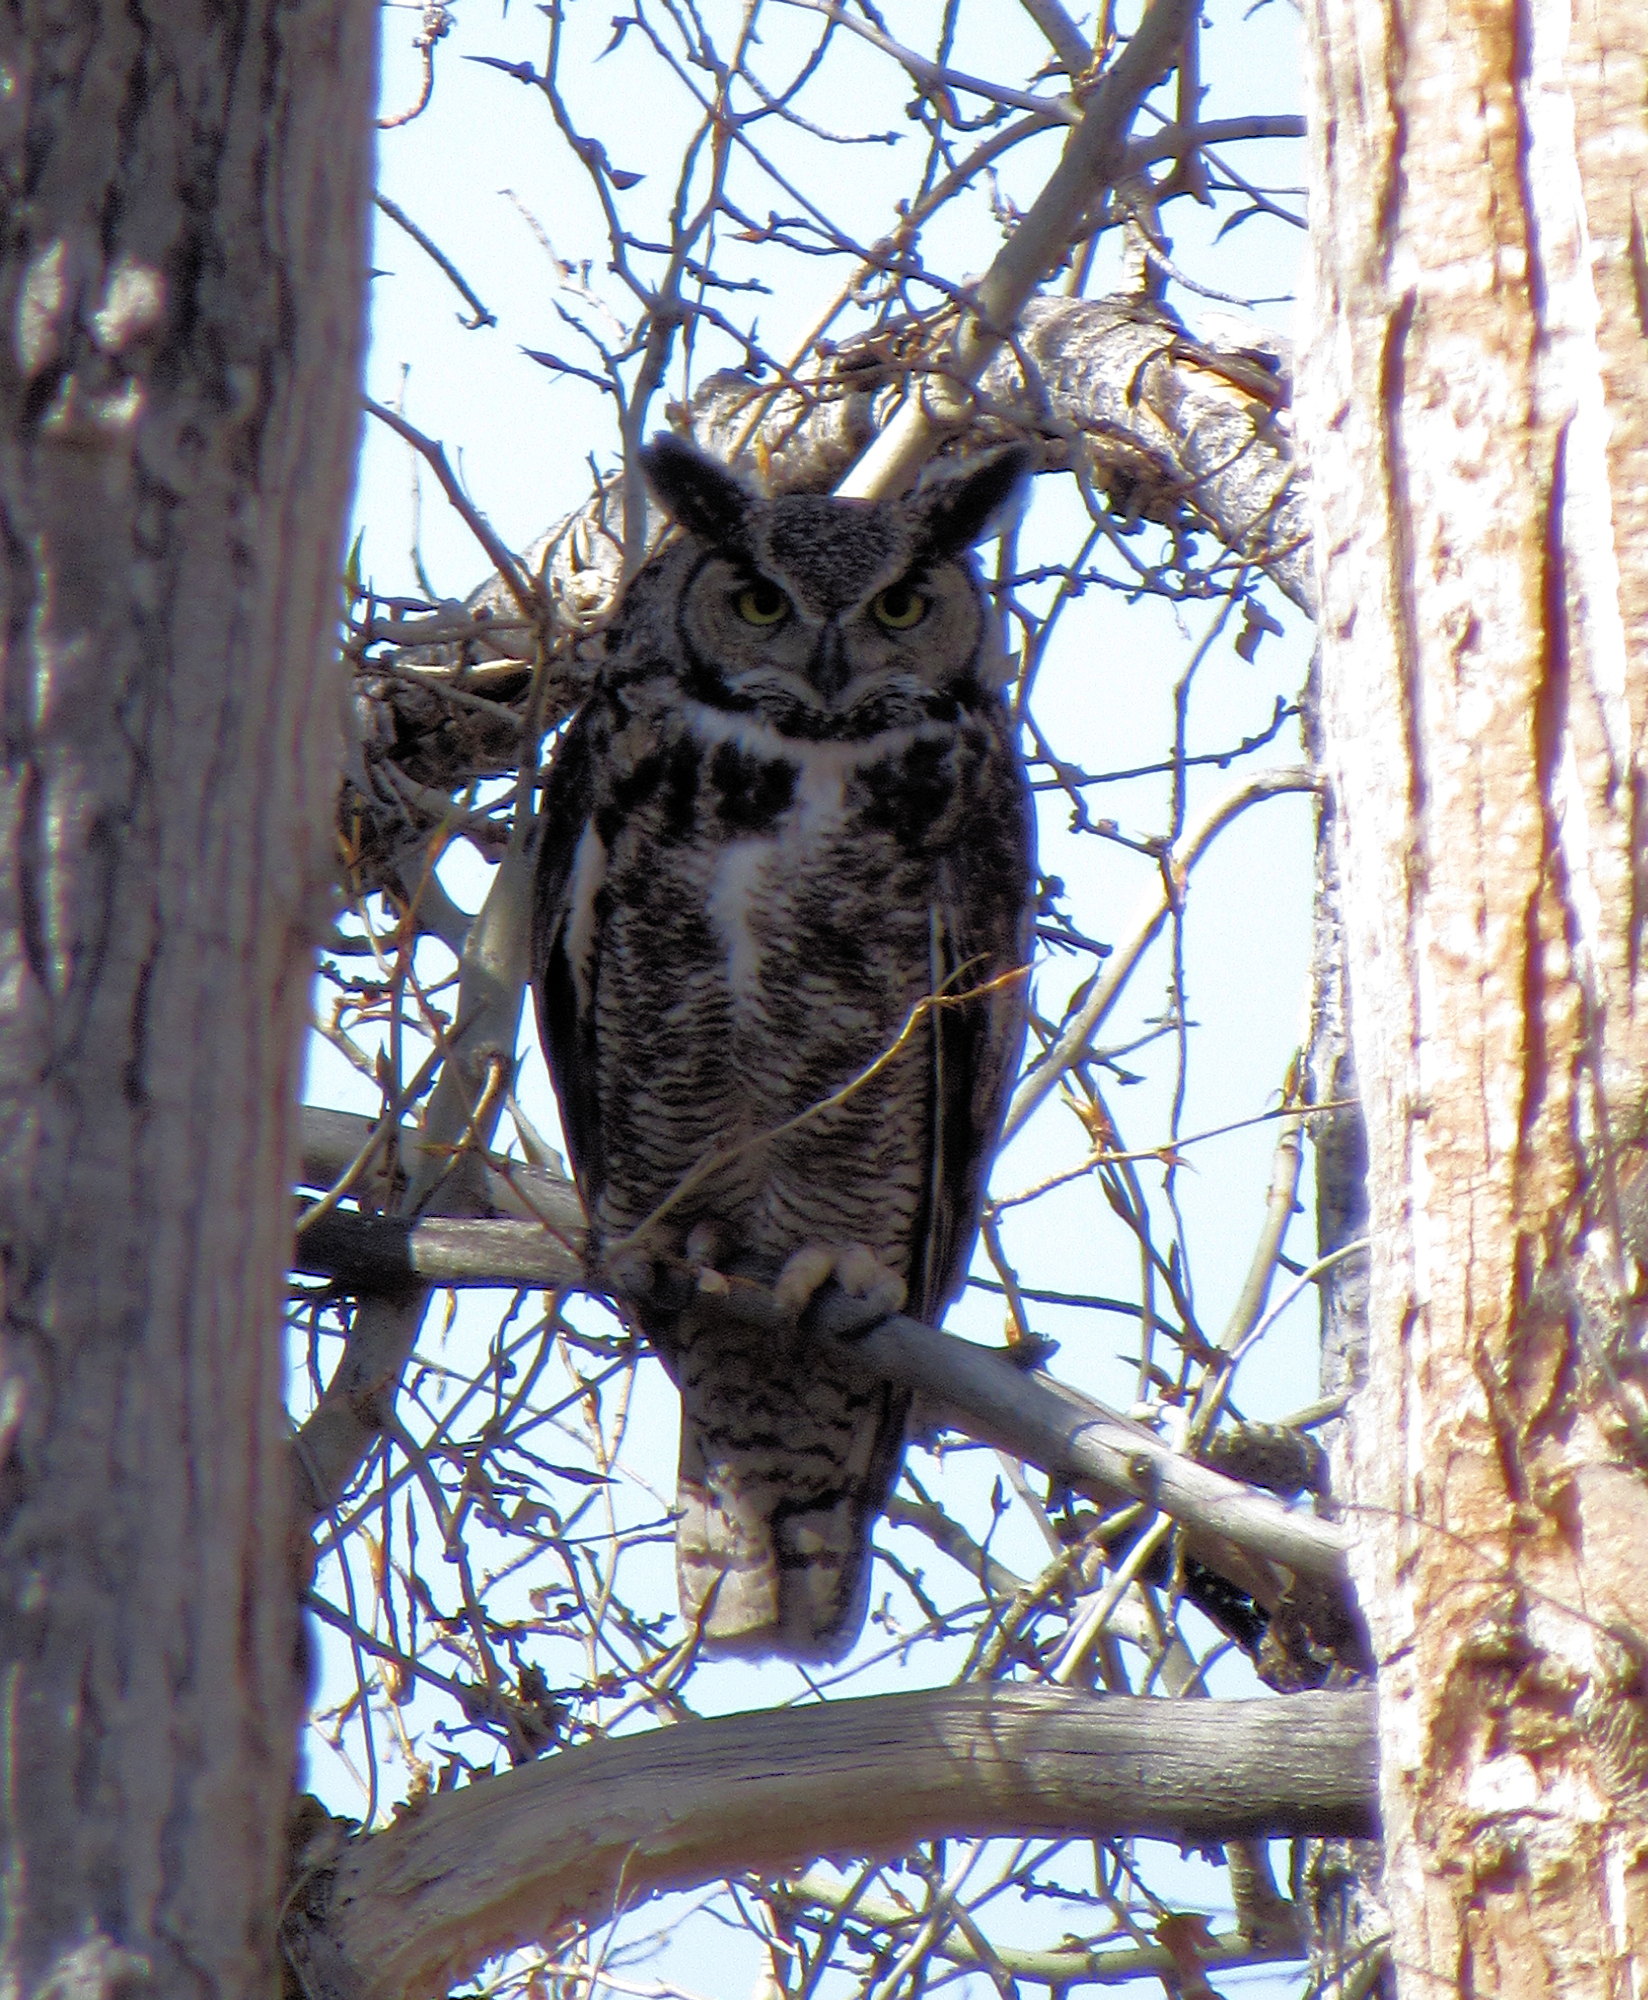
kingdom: Animalia
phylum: Chordata
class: Aves
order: Strigiformes
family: Strigidae
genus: Bubo
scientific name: Bubo virginianus
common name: Great horned owl
